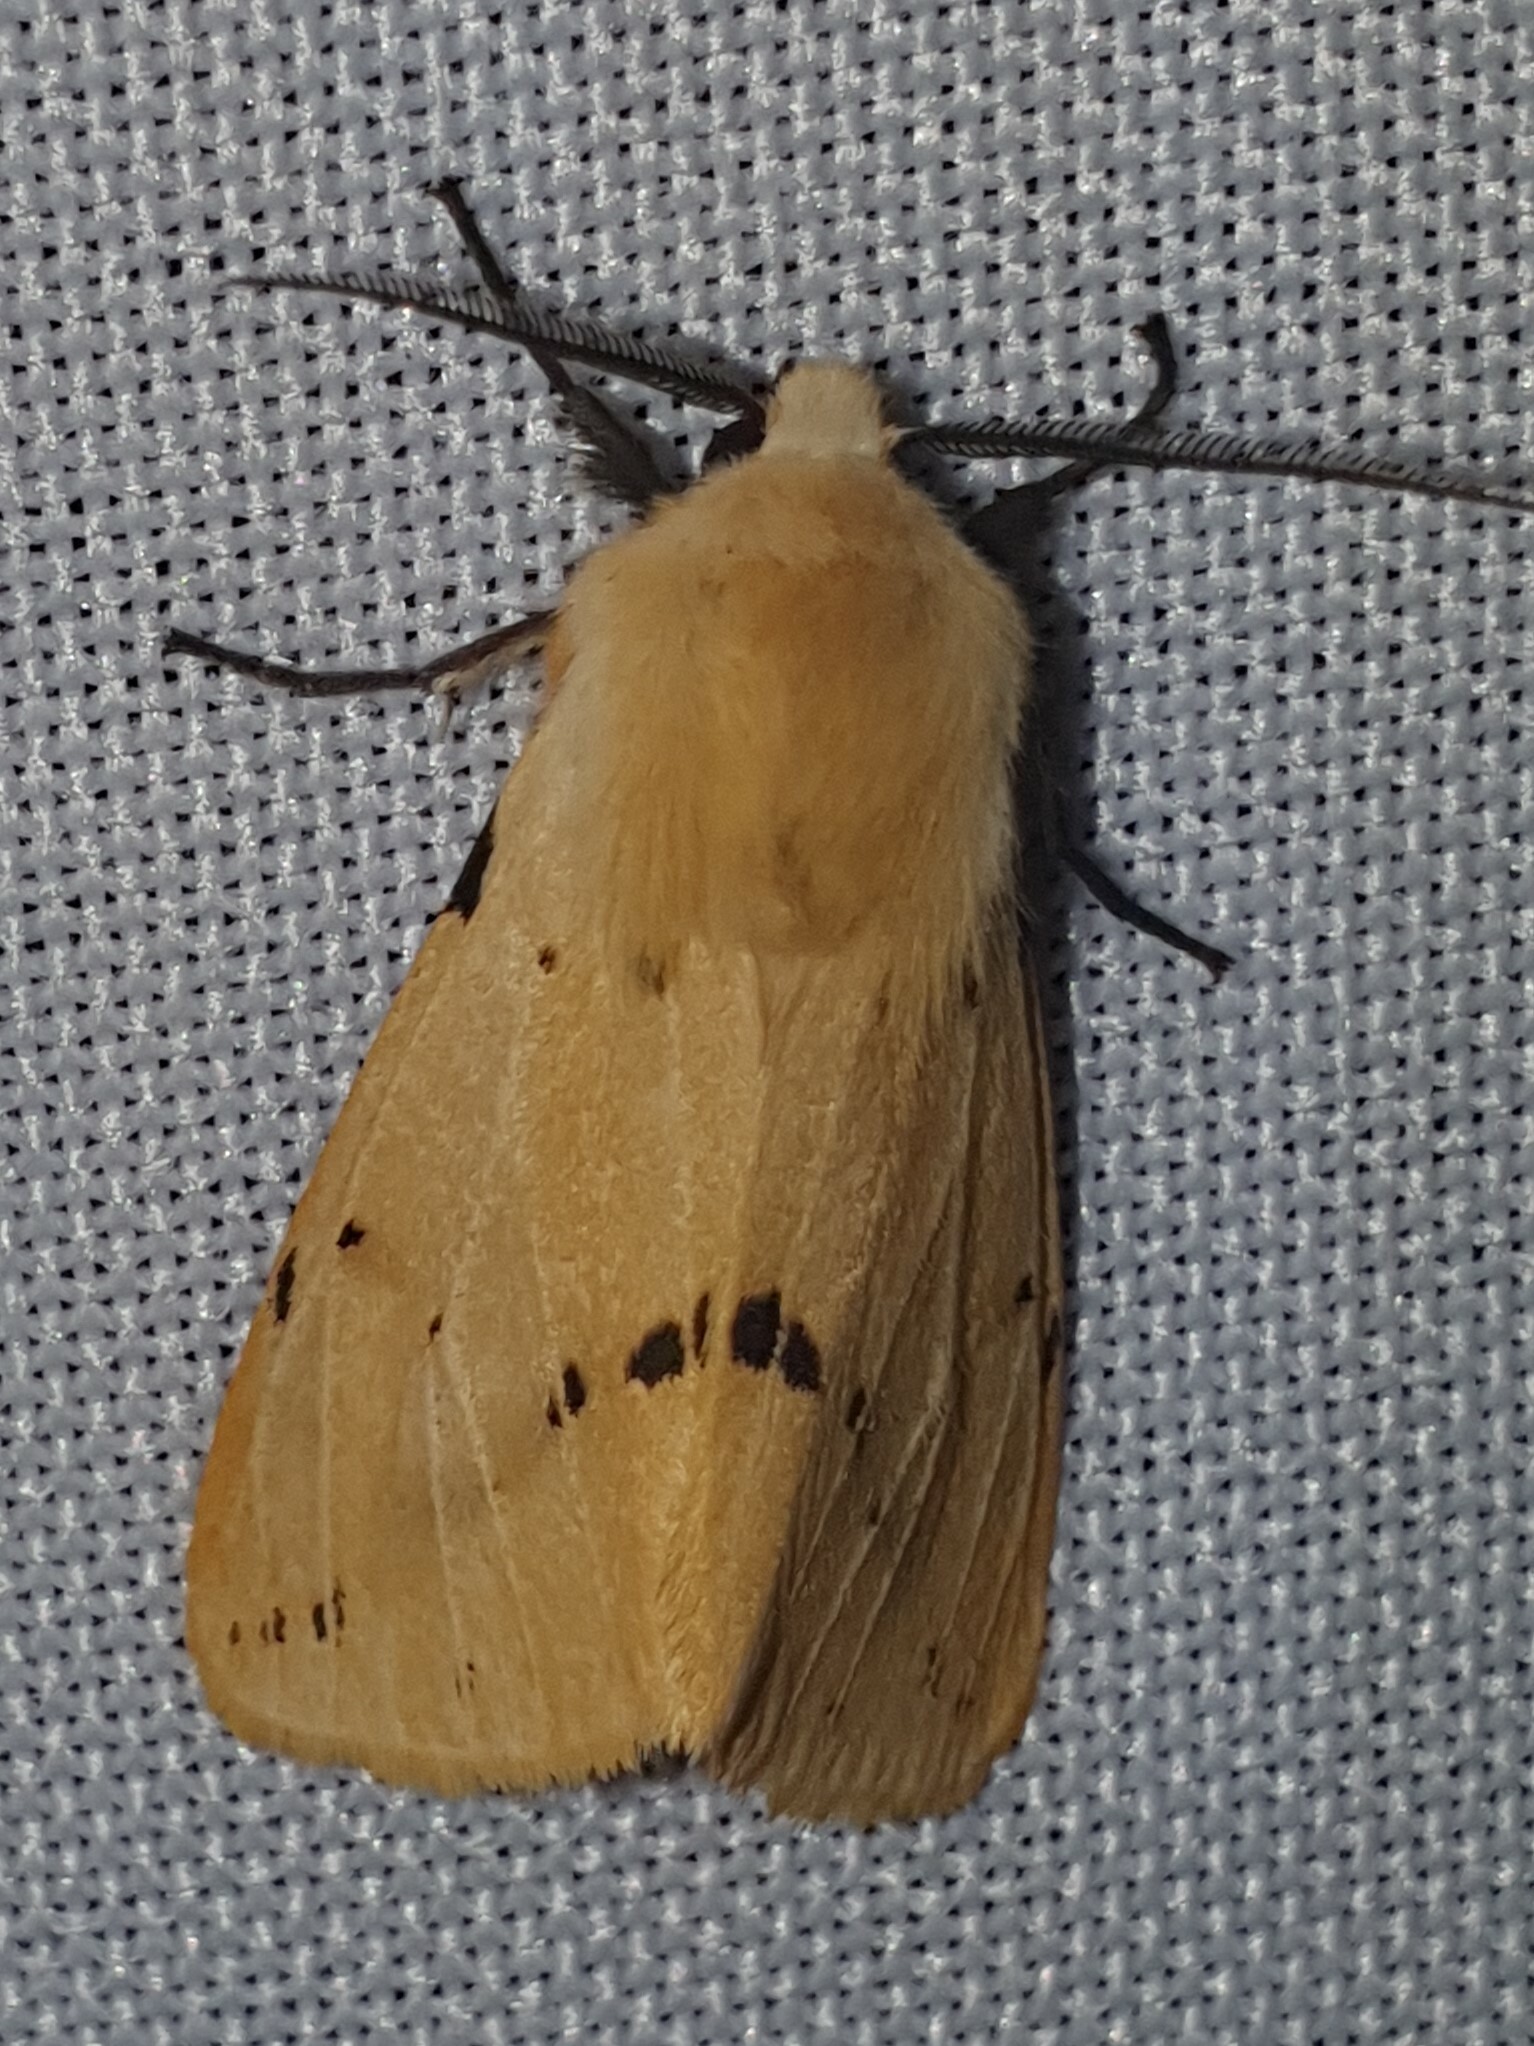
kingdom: Animalia
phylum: Arthropoda
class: Insecta
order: Lepidoptera
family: Erebidae
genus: Spilarctia
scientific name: Spilarctia lutea
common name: Buff ermine
